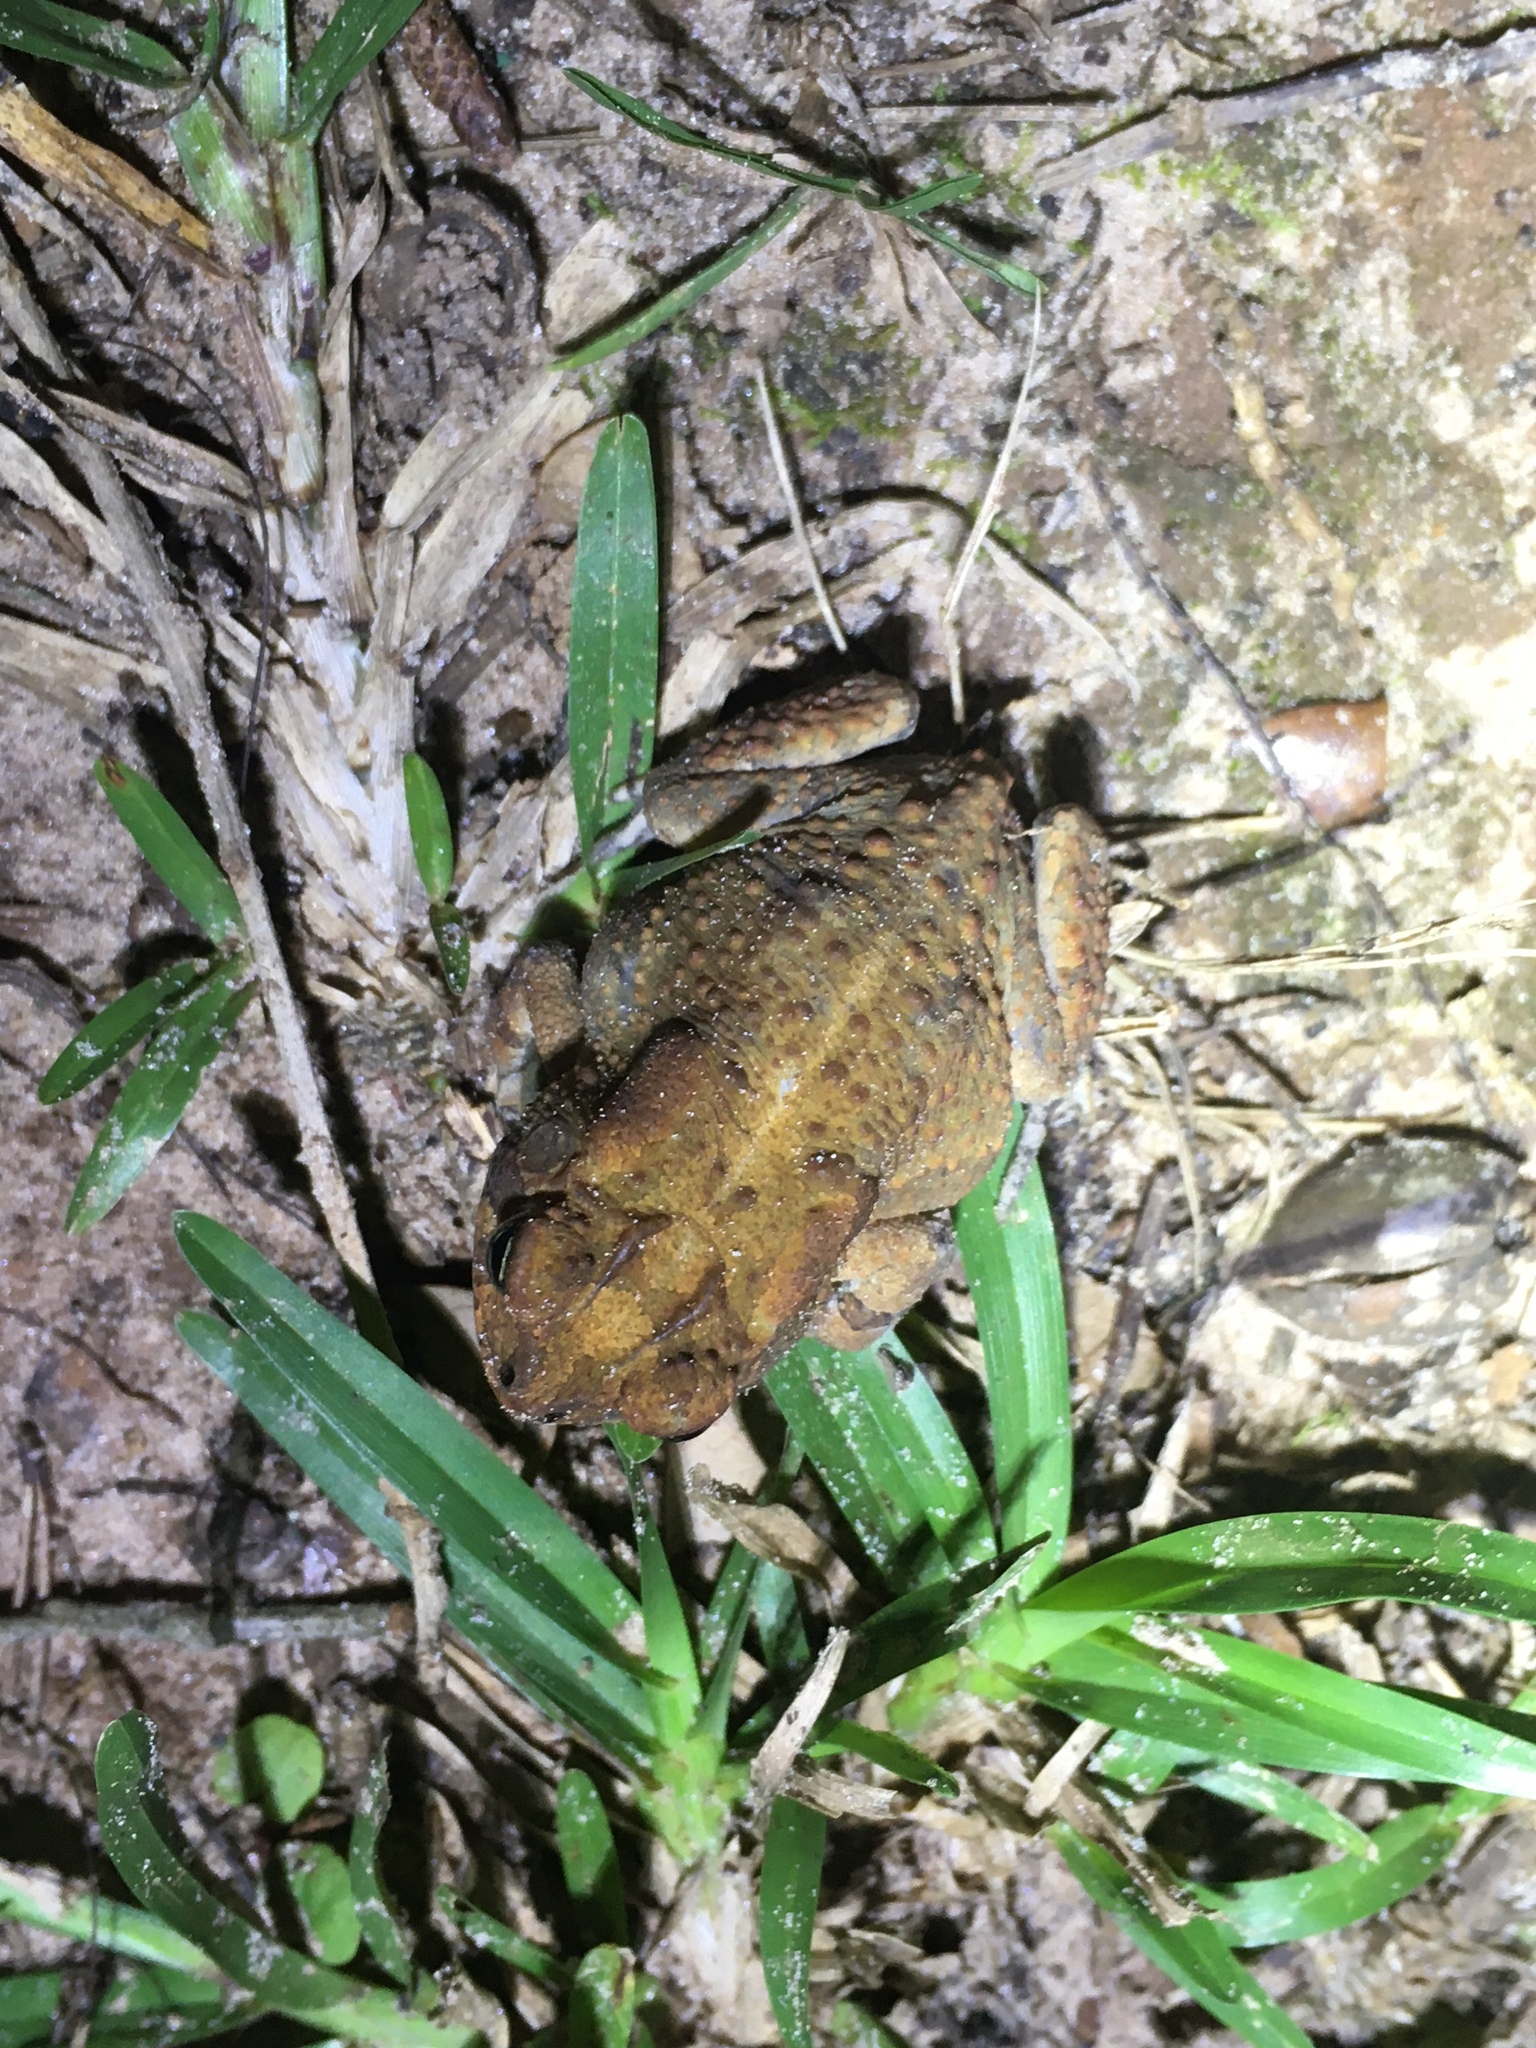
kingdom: Animalia
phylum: Chordata
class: Amphibia
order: Anura
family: Bufonidae
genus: Anaxyrus
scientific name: Anaxyrus terrestris
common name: Southern toad
